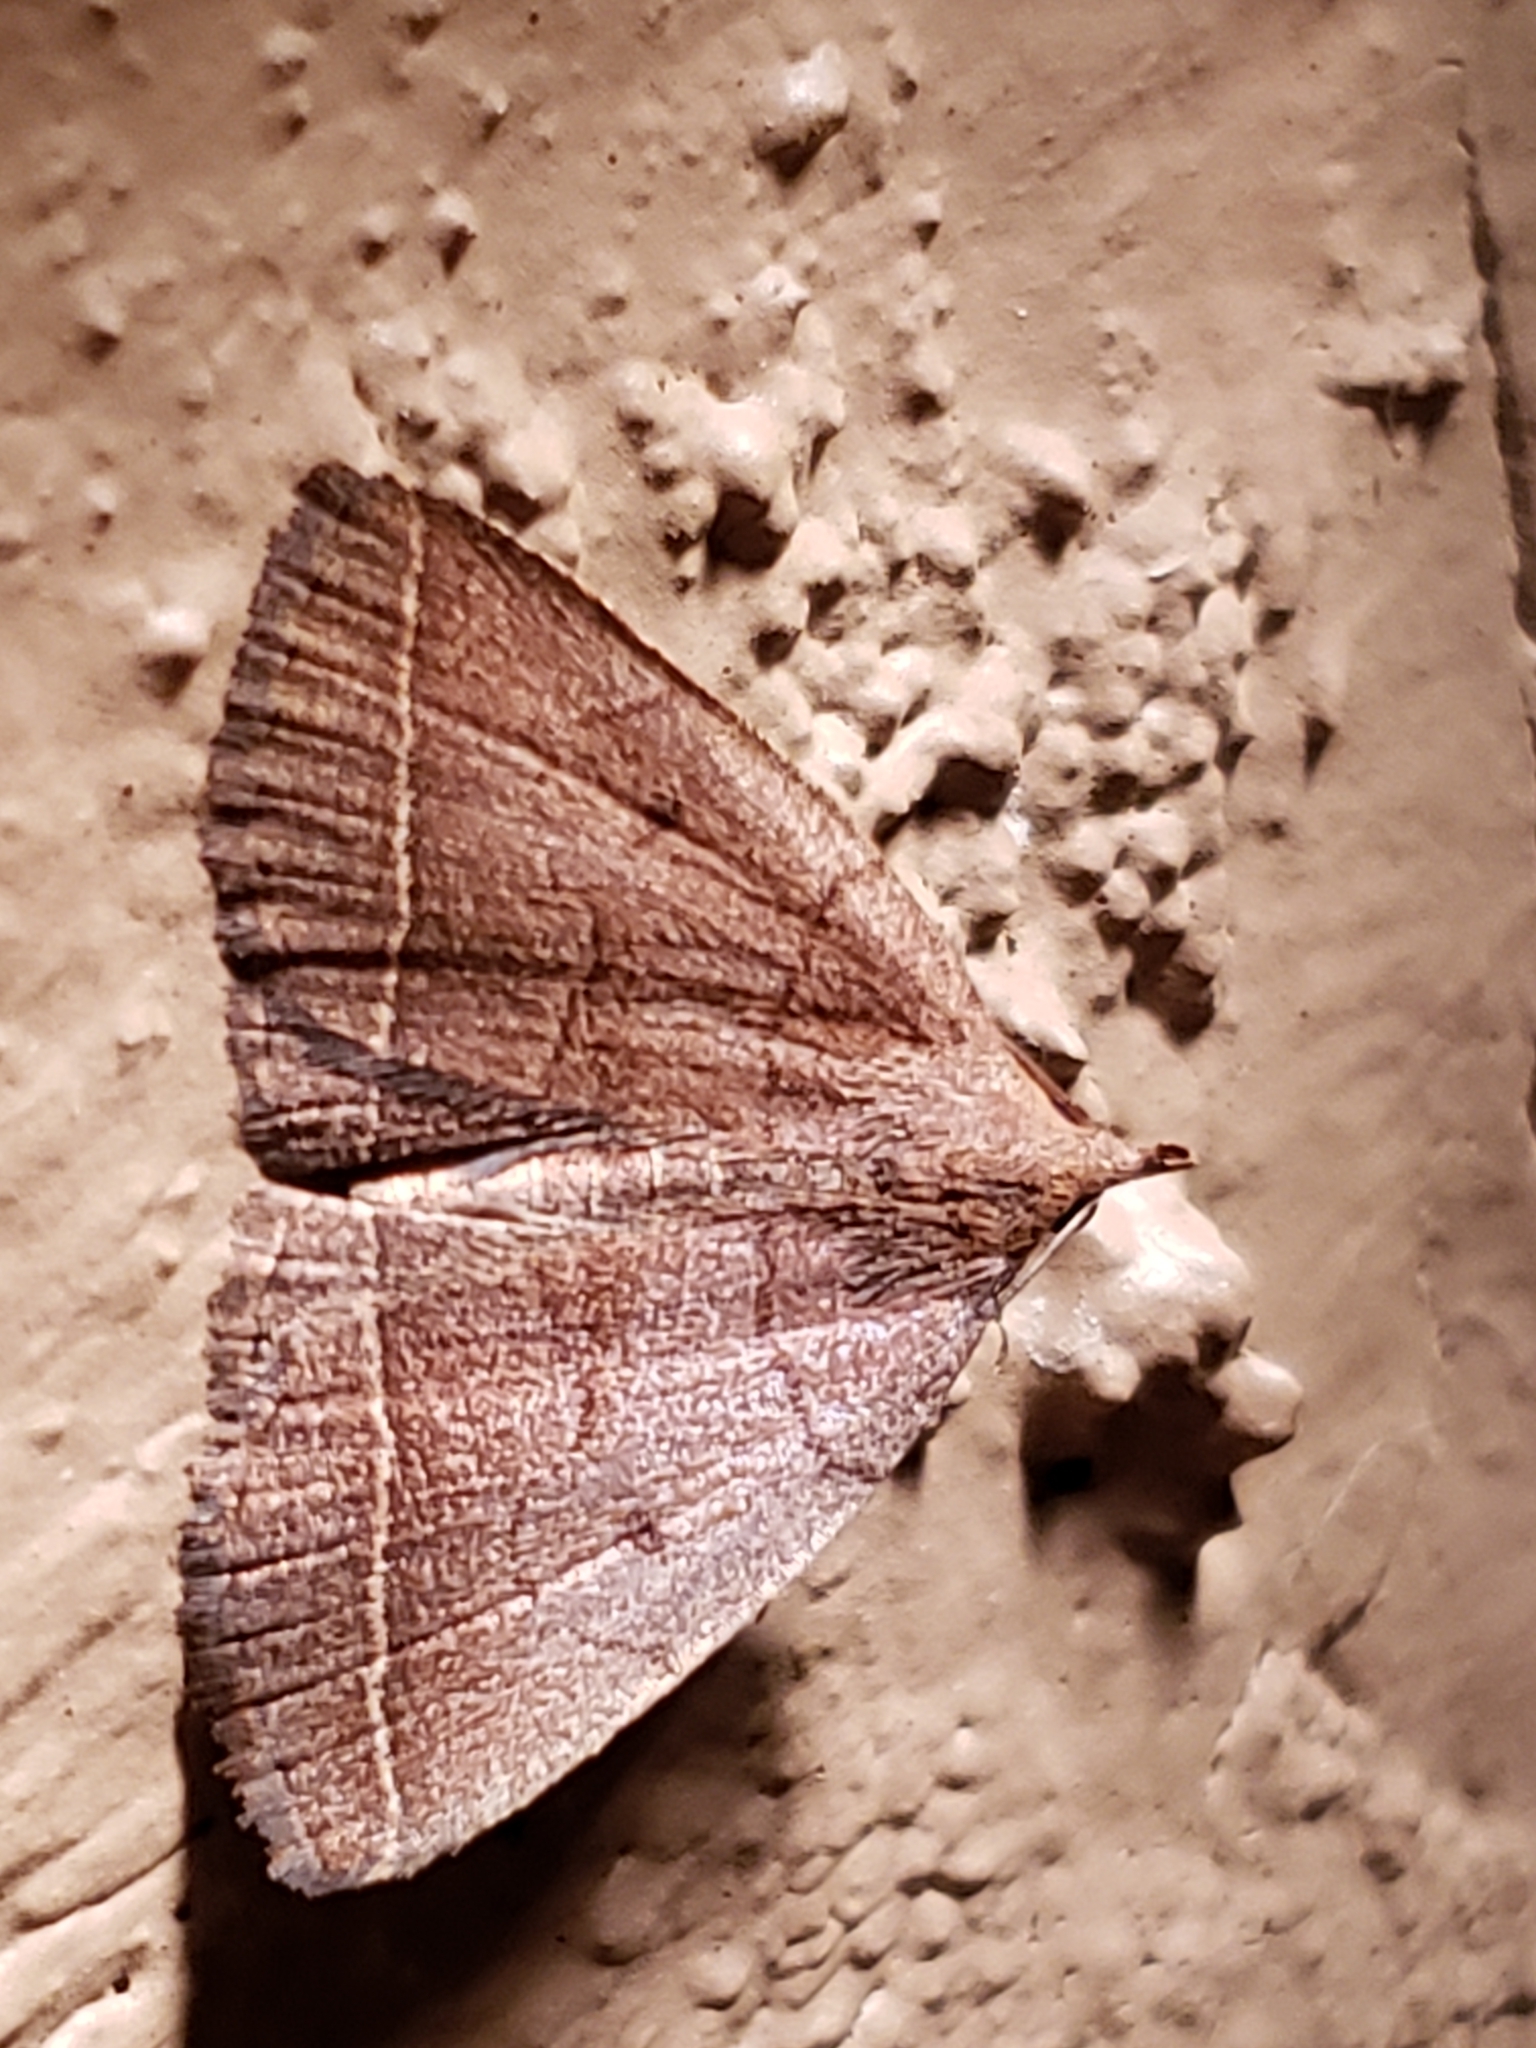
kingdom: Animalia
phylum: Arthropoda
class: Insecta
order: Lepidoptera
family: Erebidae
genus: Zanclognatha
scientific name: Zanclognatha obscuripennis
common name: Dark fan-foot
